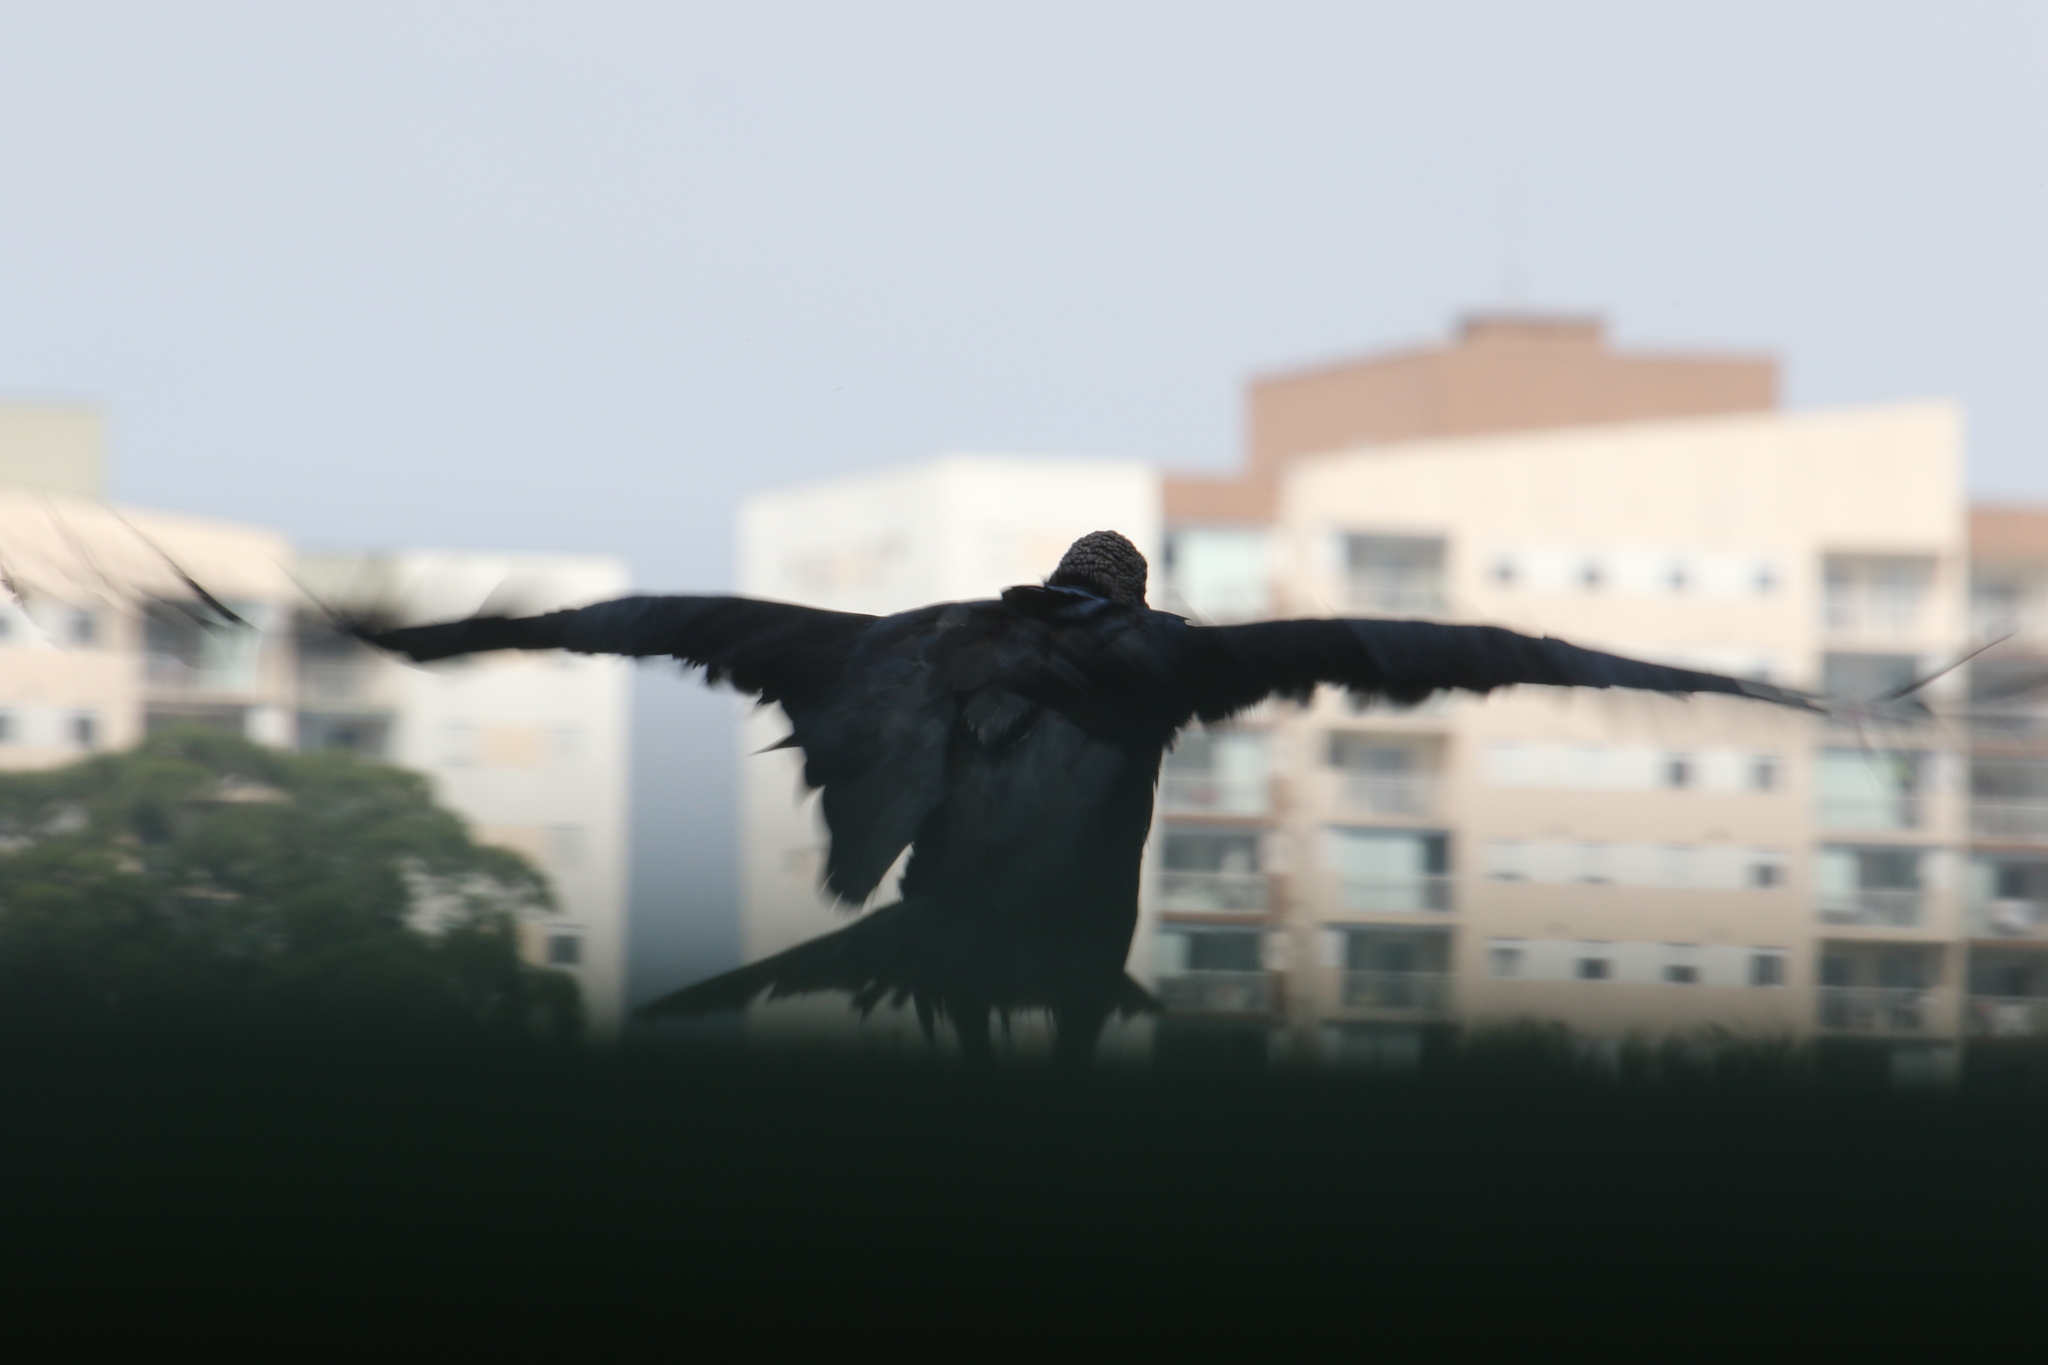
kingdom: Animalia
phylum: Chordata
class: Aves
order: Accipitriformes
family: Cathartidae
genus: Coragyps
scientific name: Coragyps atratus
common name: Black vulture
